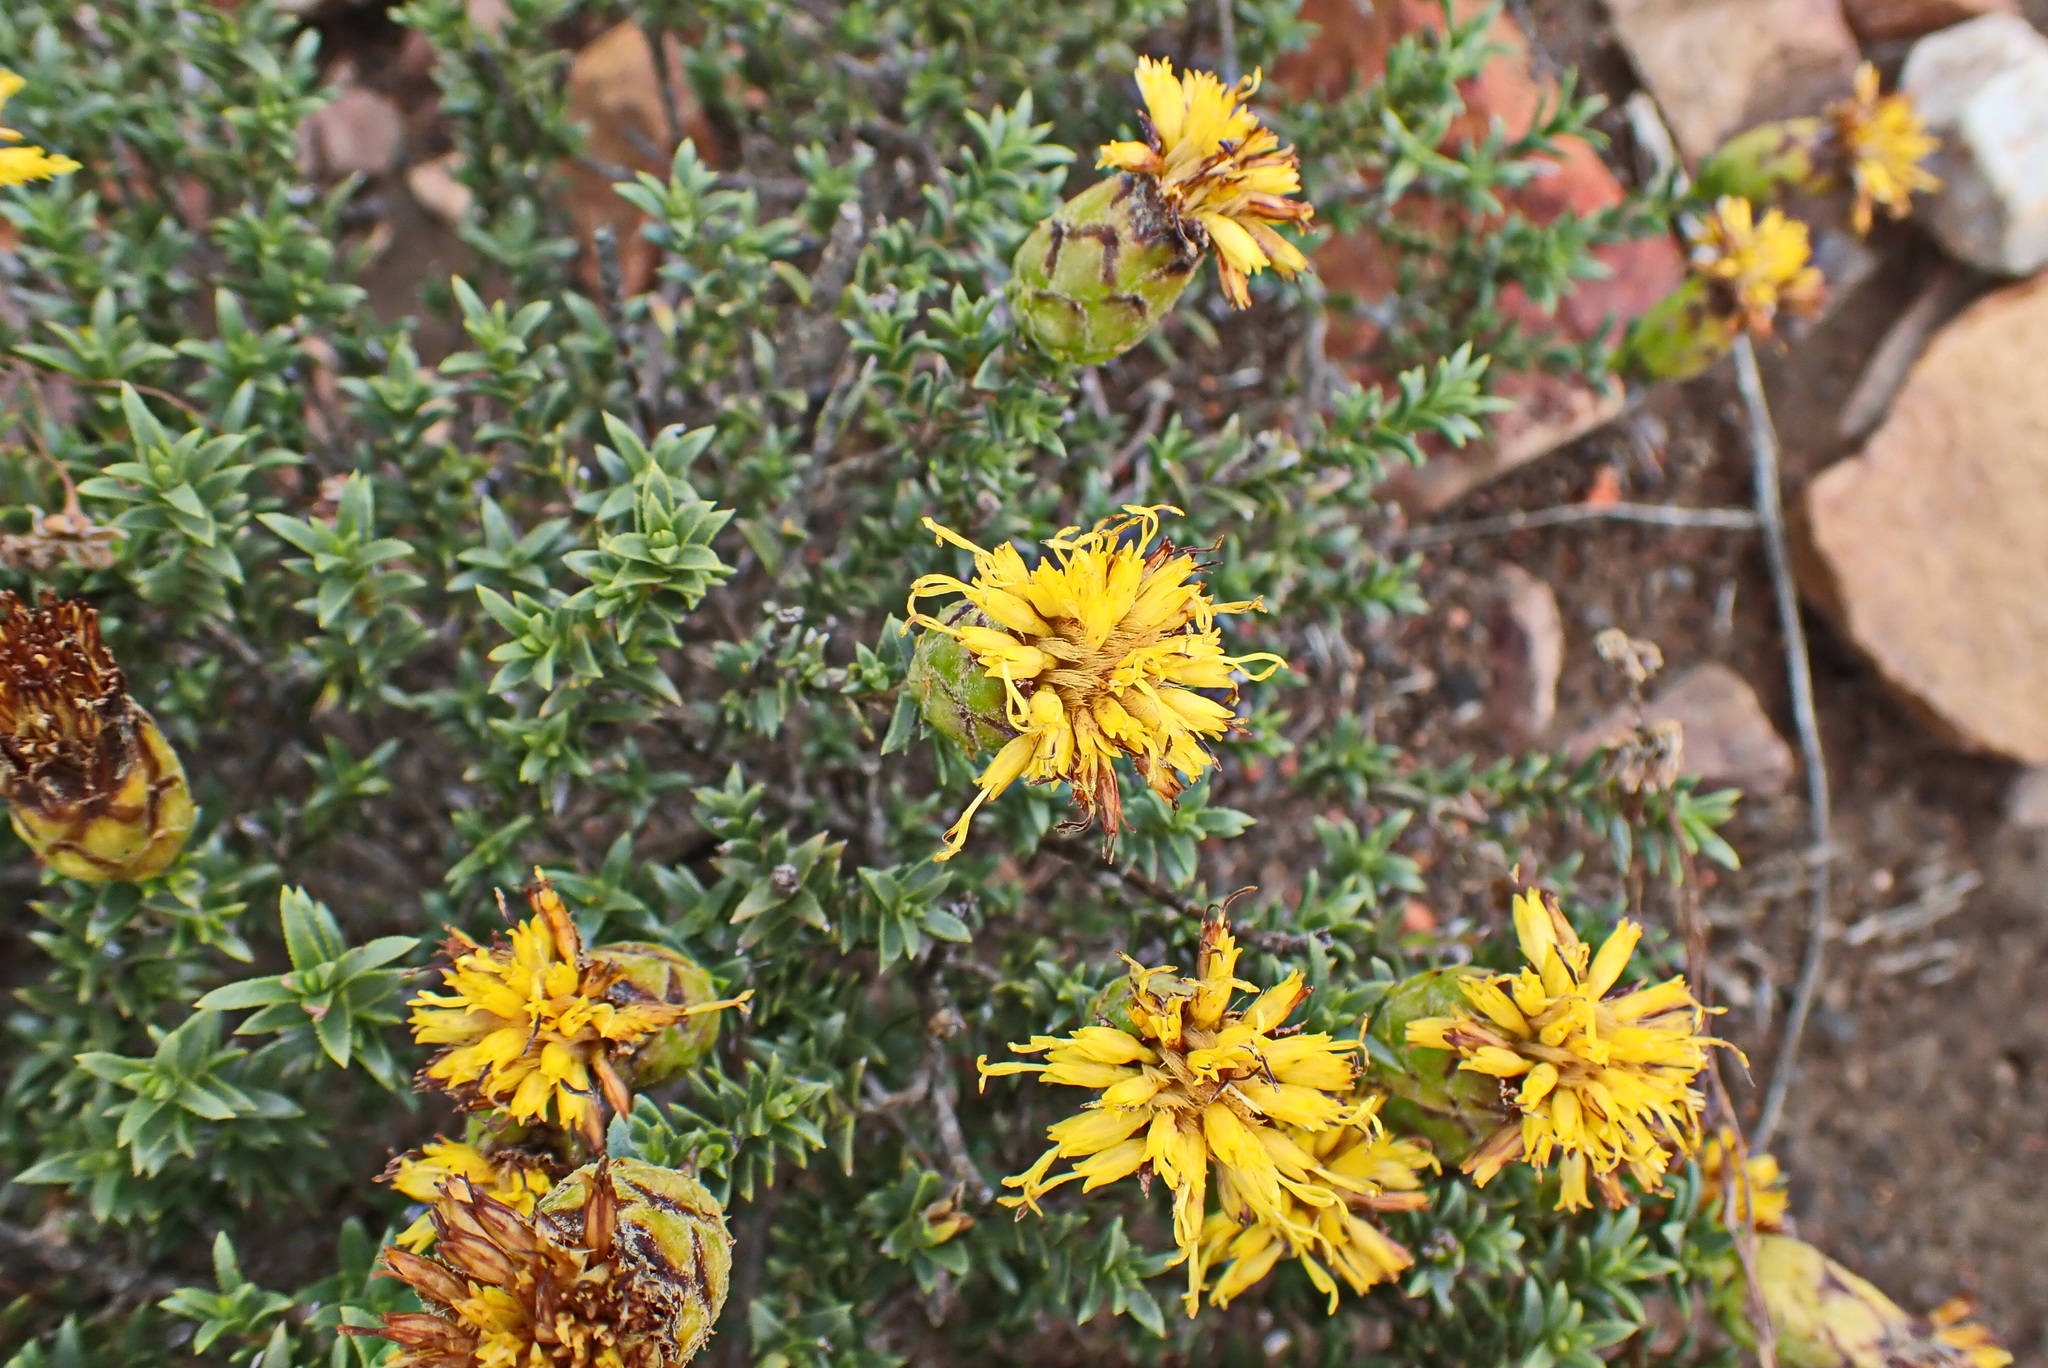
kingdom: Plantae
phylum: Tracheophyta
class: Magnoliopsida
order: Asterales
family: Asteraceae
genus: Pteronia
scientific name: Pteronia elongata
